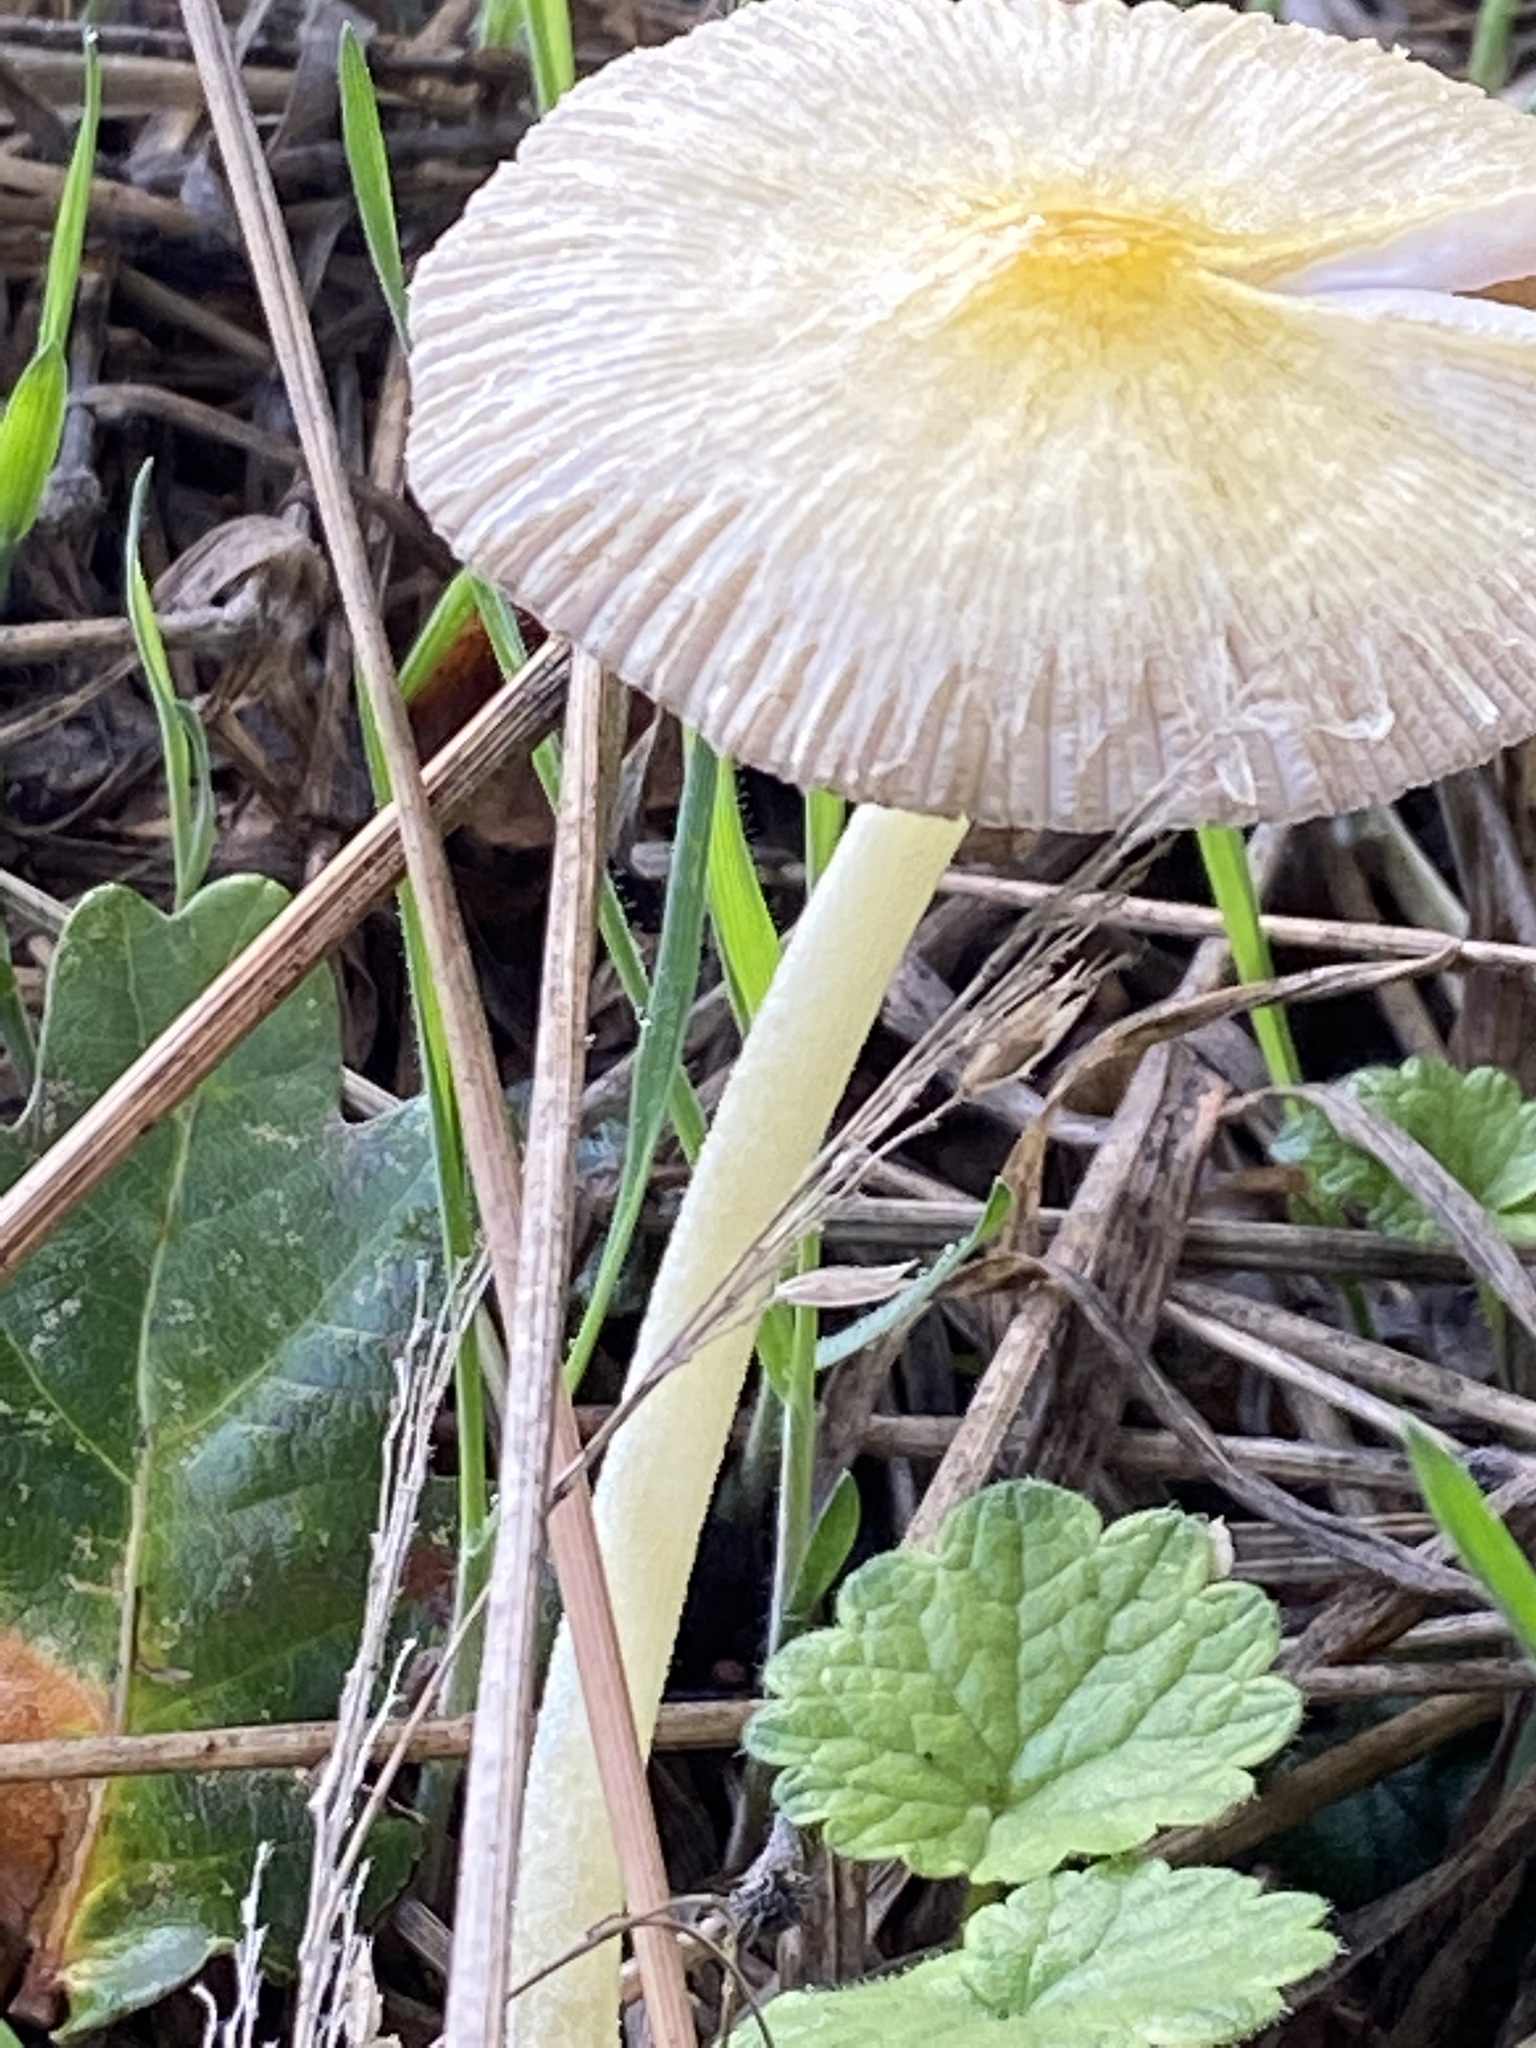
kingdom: Fungi
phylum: Basidiomycota
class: Agaricomycetes
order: Agaricales
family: Bolbitiaceae
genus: Bolbitius
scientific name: Bolbitius titubans
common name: Yellow fieldcap
